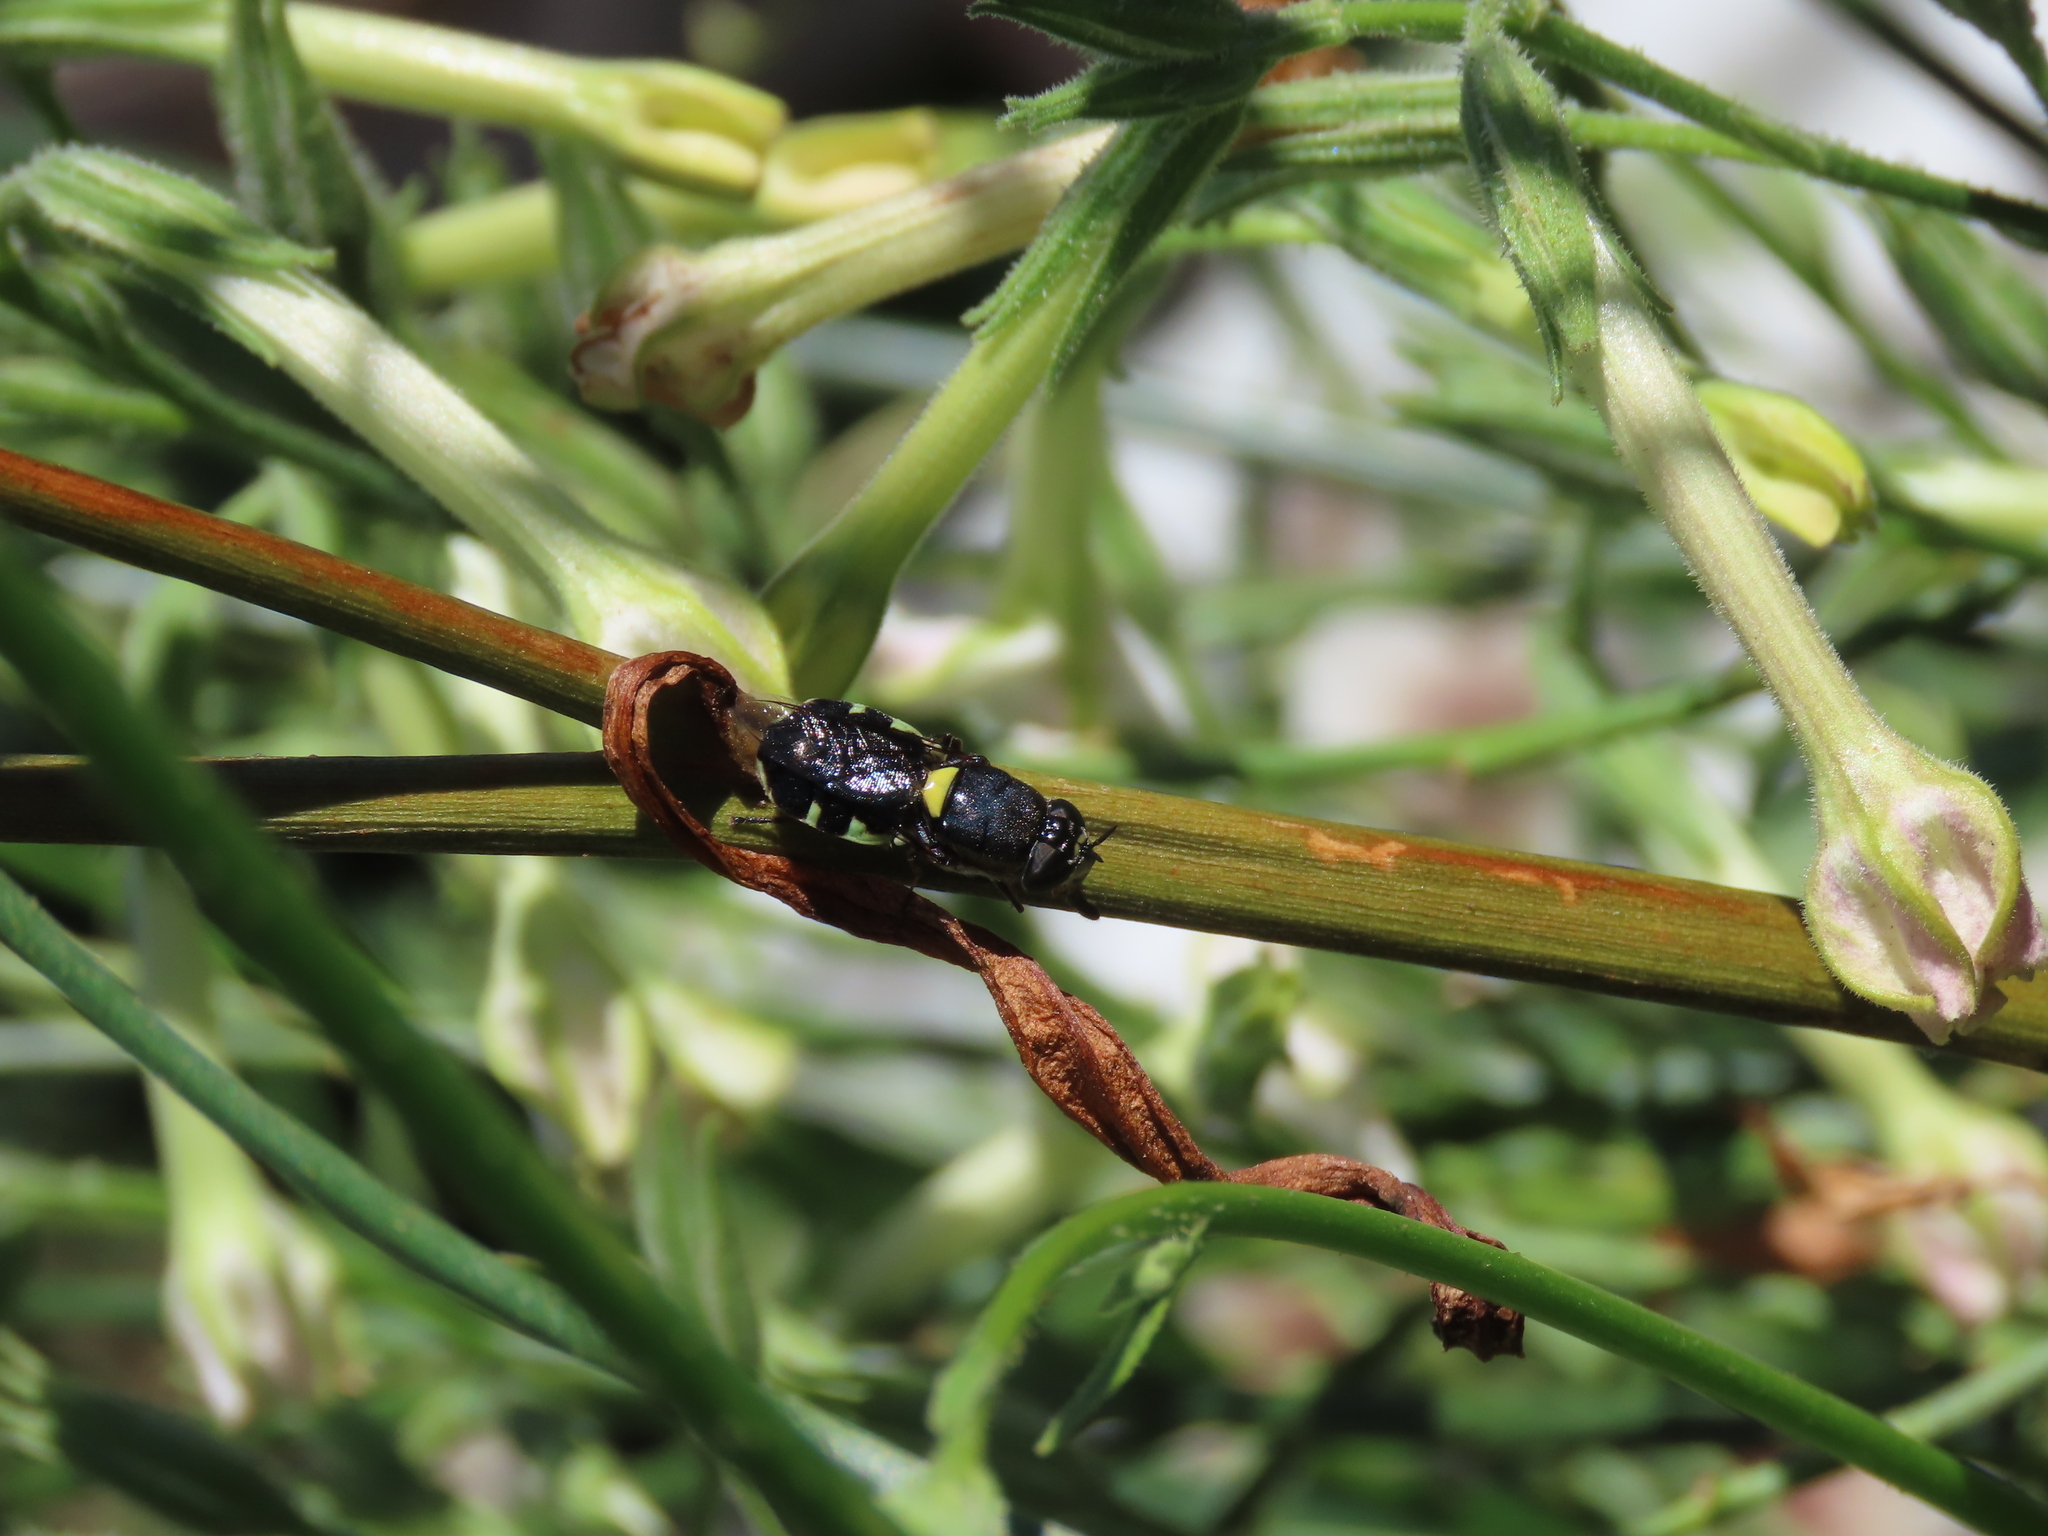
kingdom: Animalia
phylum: Arthropoda
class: Insecta
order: Diptera
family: Stratiomyidae
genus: Odontomyia
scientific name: Odontomyia hunteri
